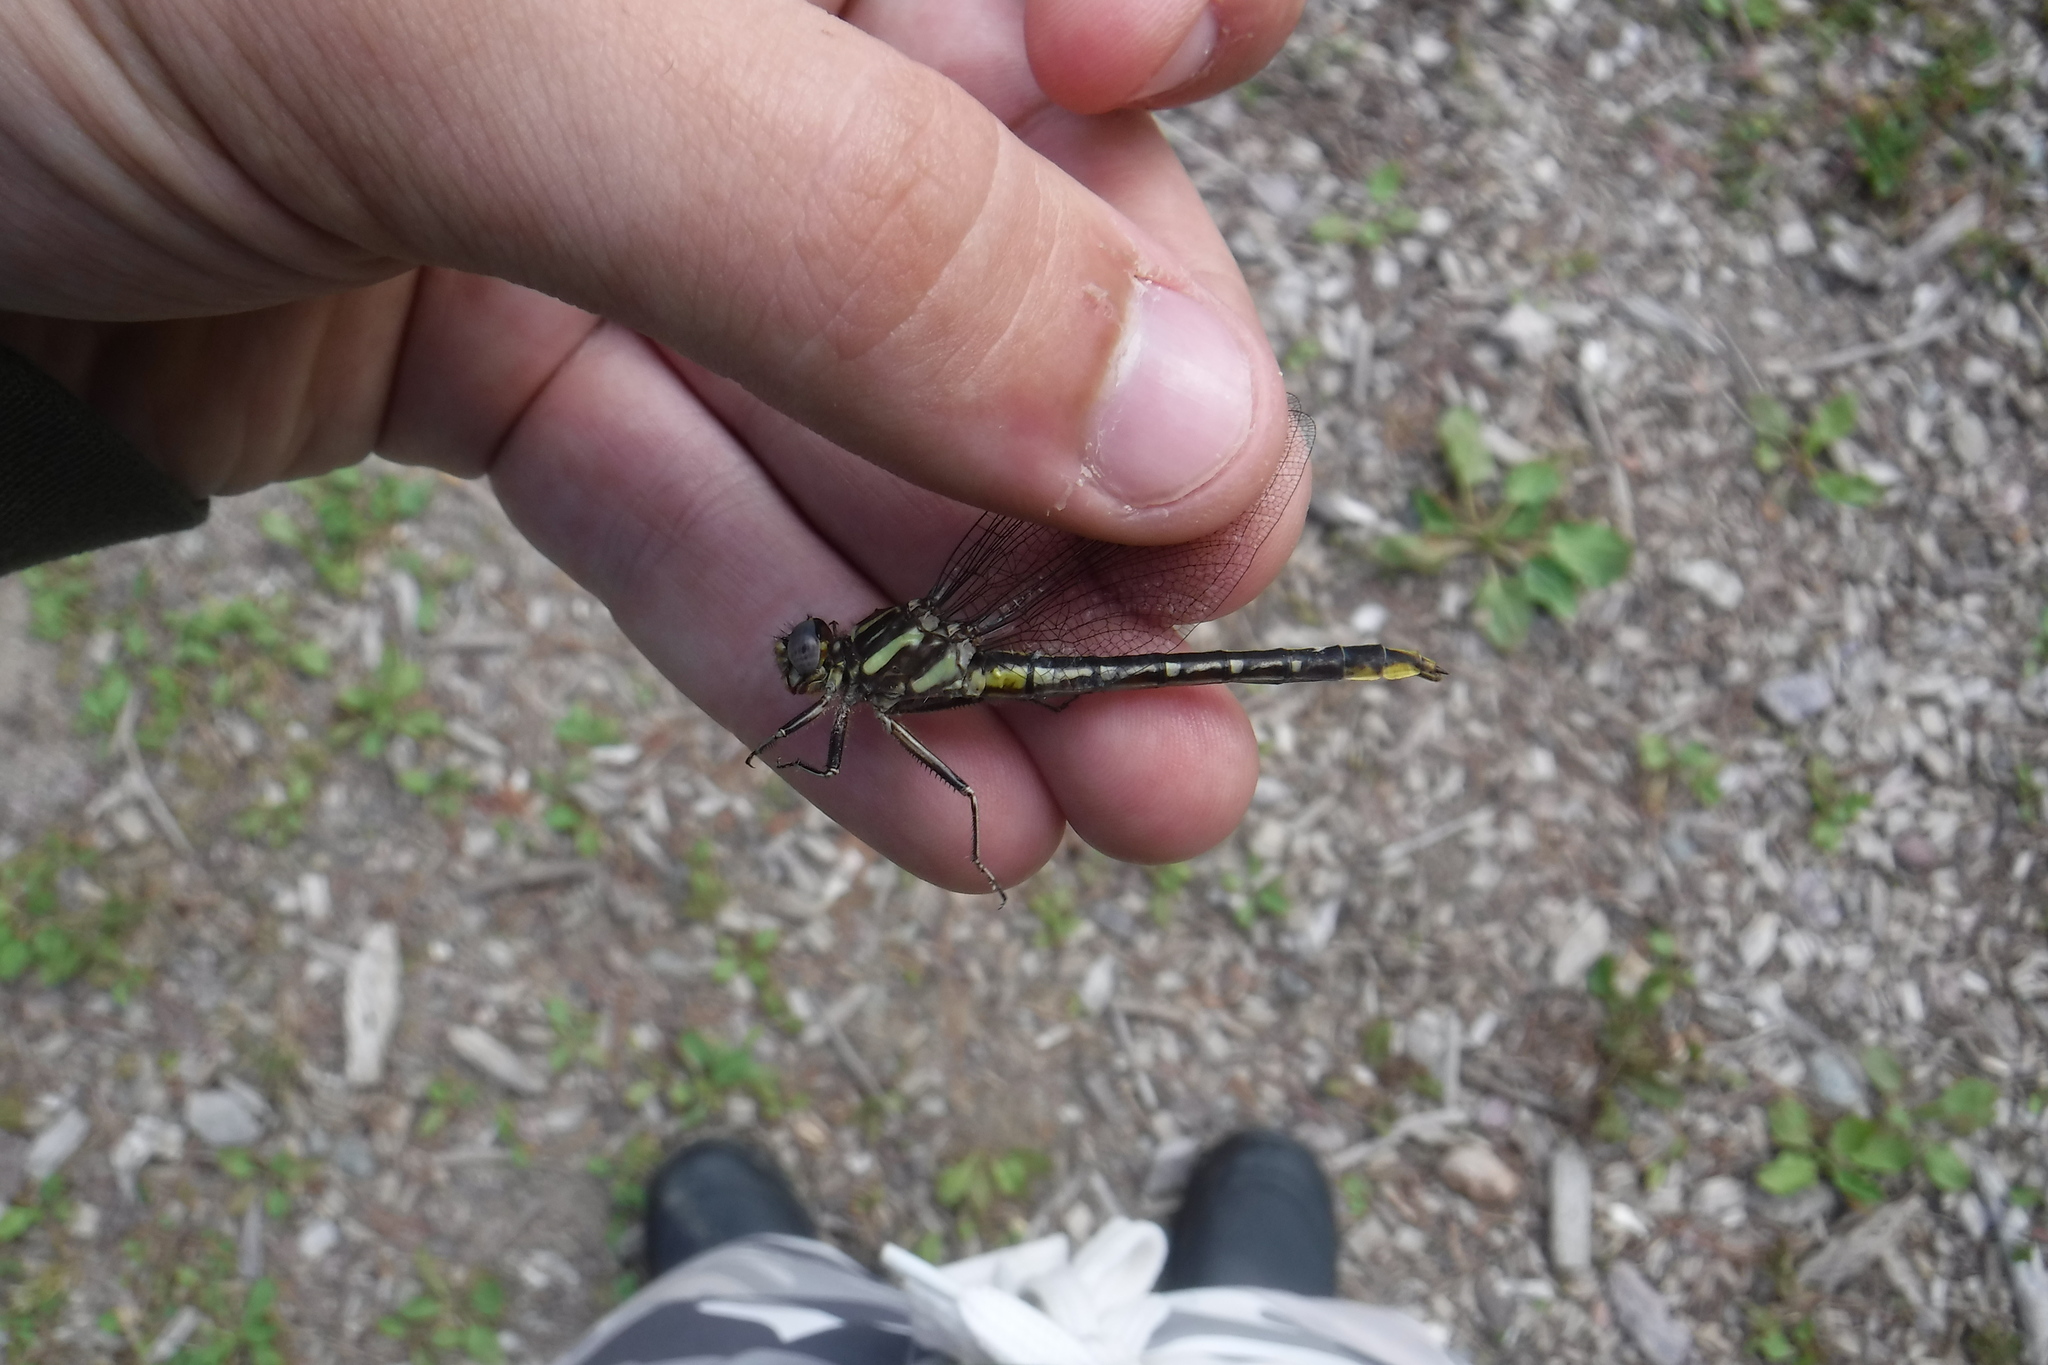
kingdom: Animalia
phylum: Arthropoda
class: Insecta
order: Odonata
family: Gomphidae
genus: Phanogomphus
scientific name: Phanogomphus exilis
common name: Lancet clubtail
